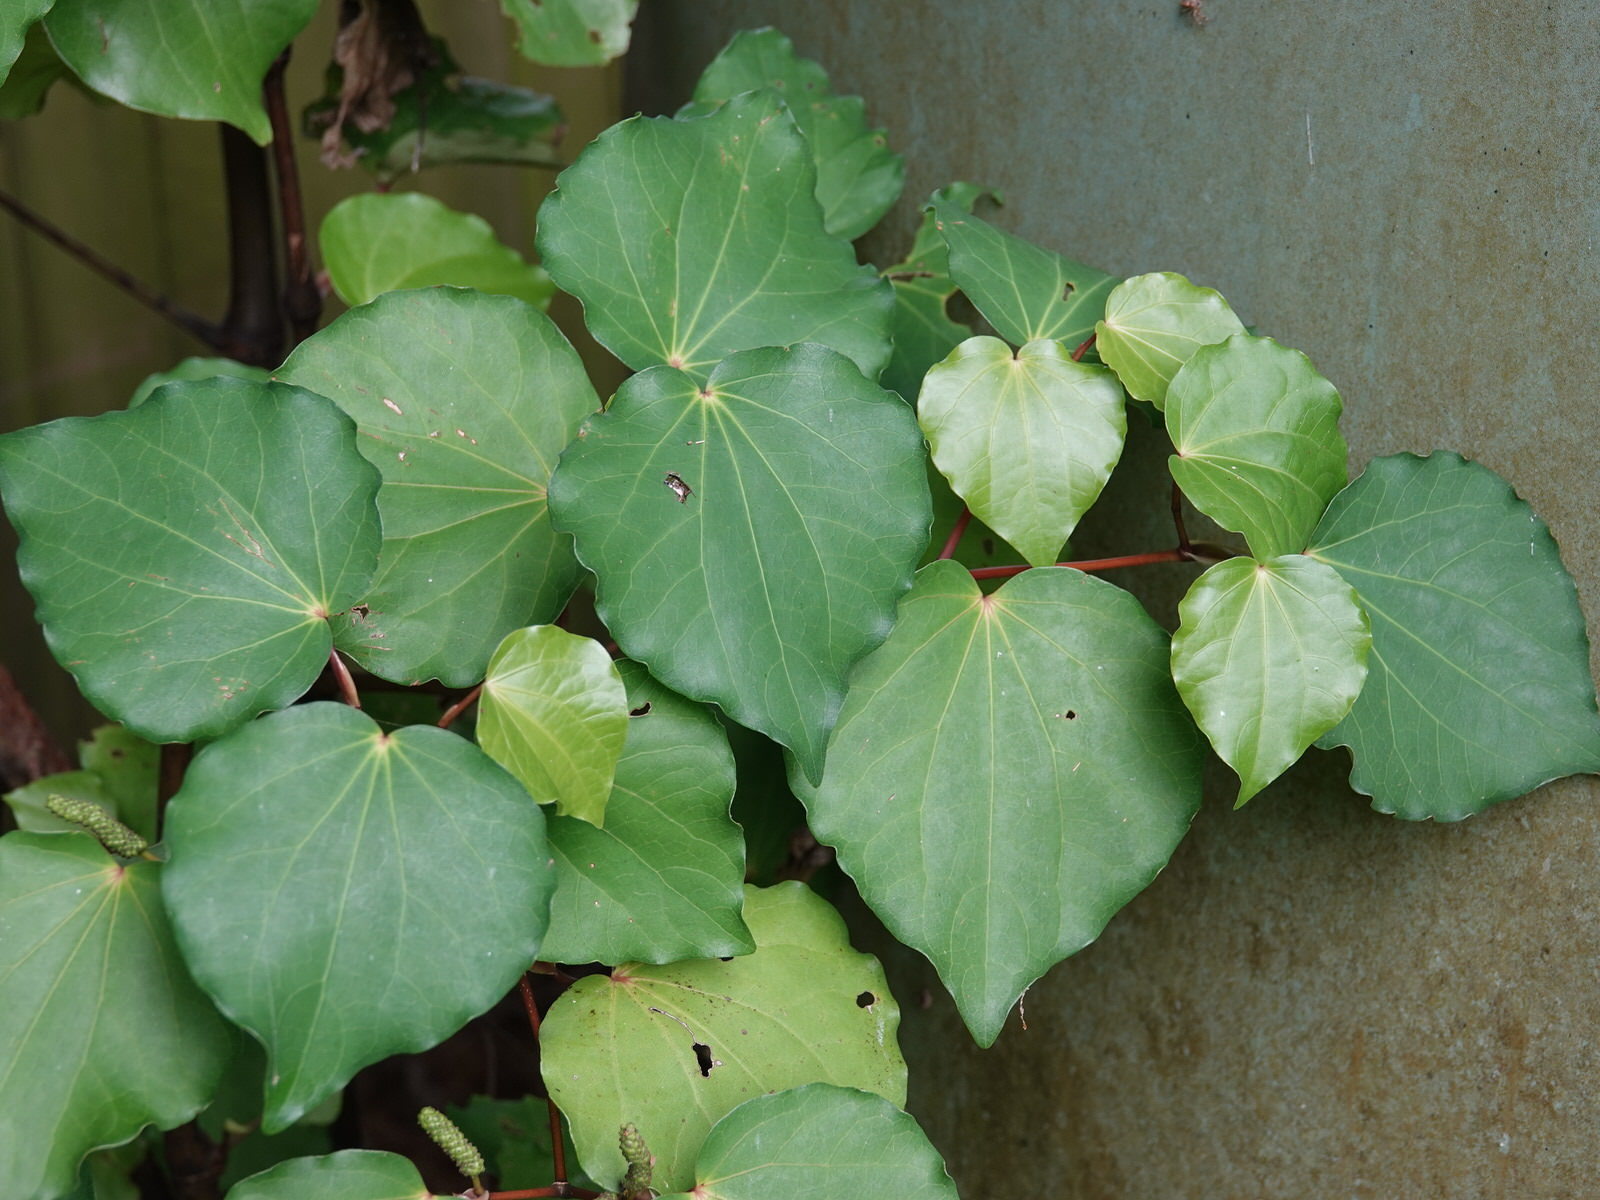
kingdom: Plantae
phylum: Tracheophyta
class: Magnoliopsida
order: Piperales
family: Piperaceae
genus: Macropiper
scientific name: Macropiper excelsum
